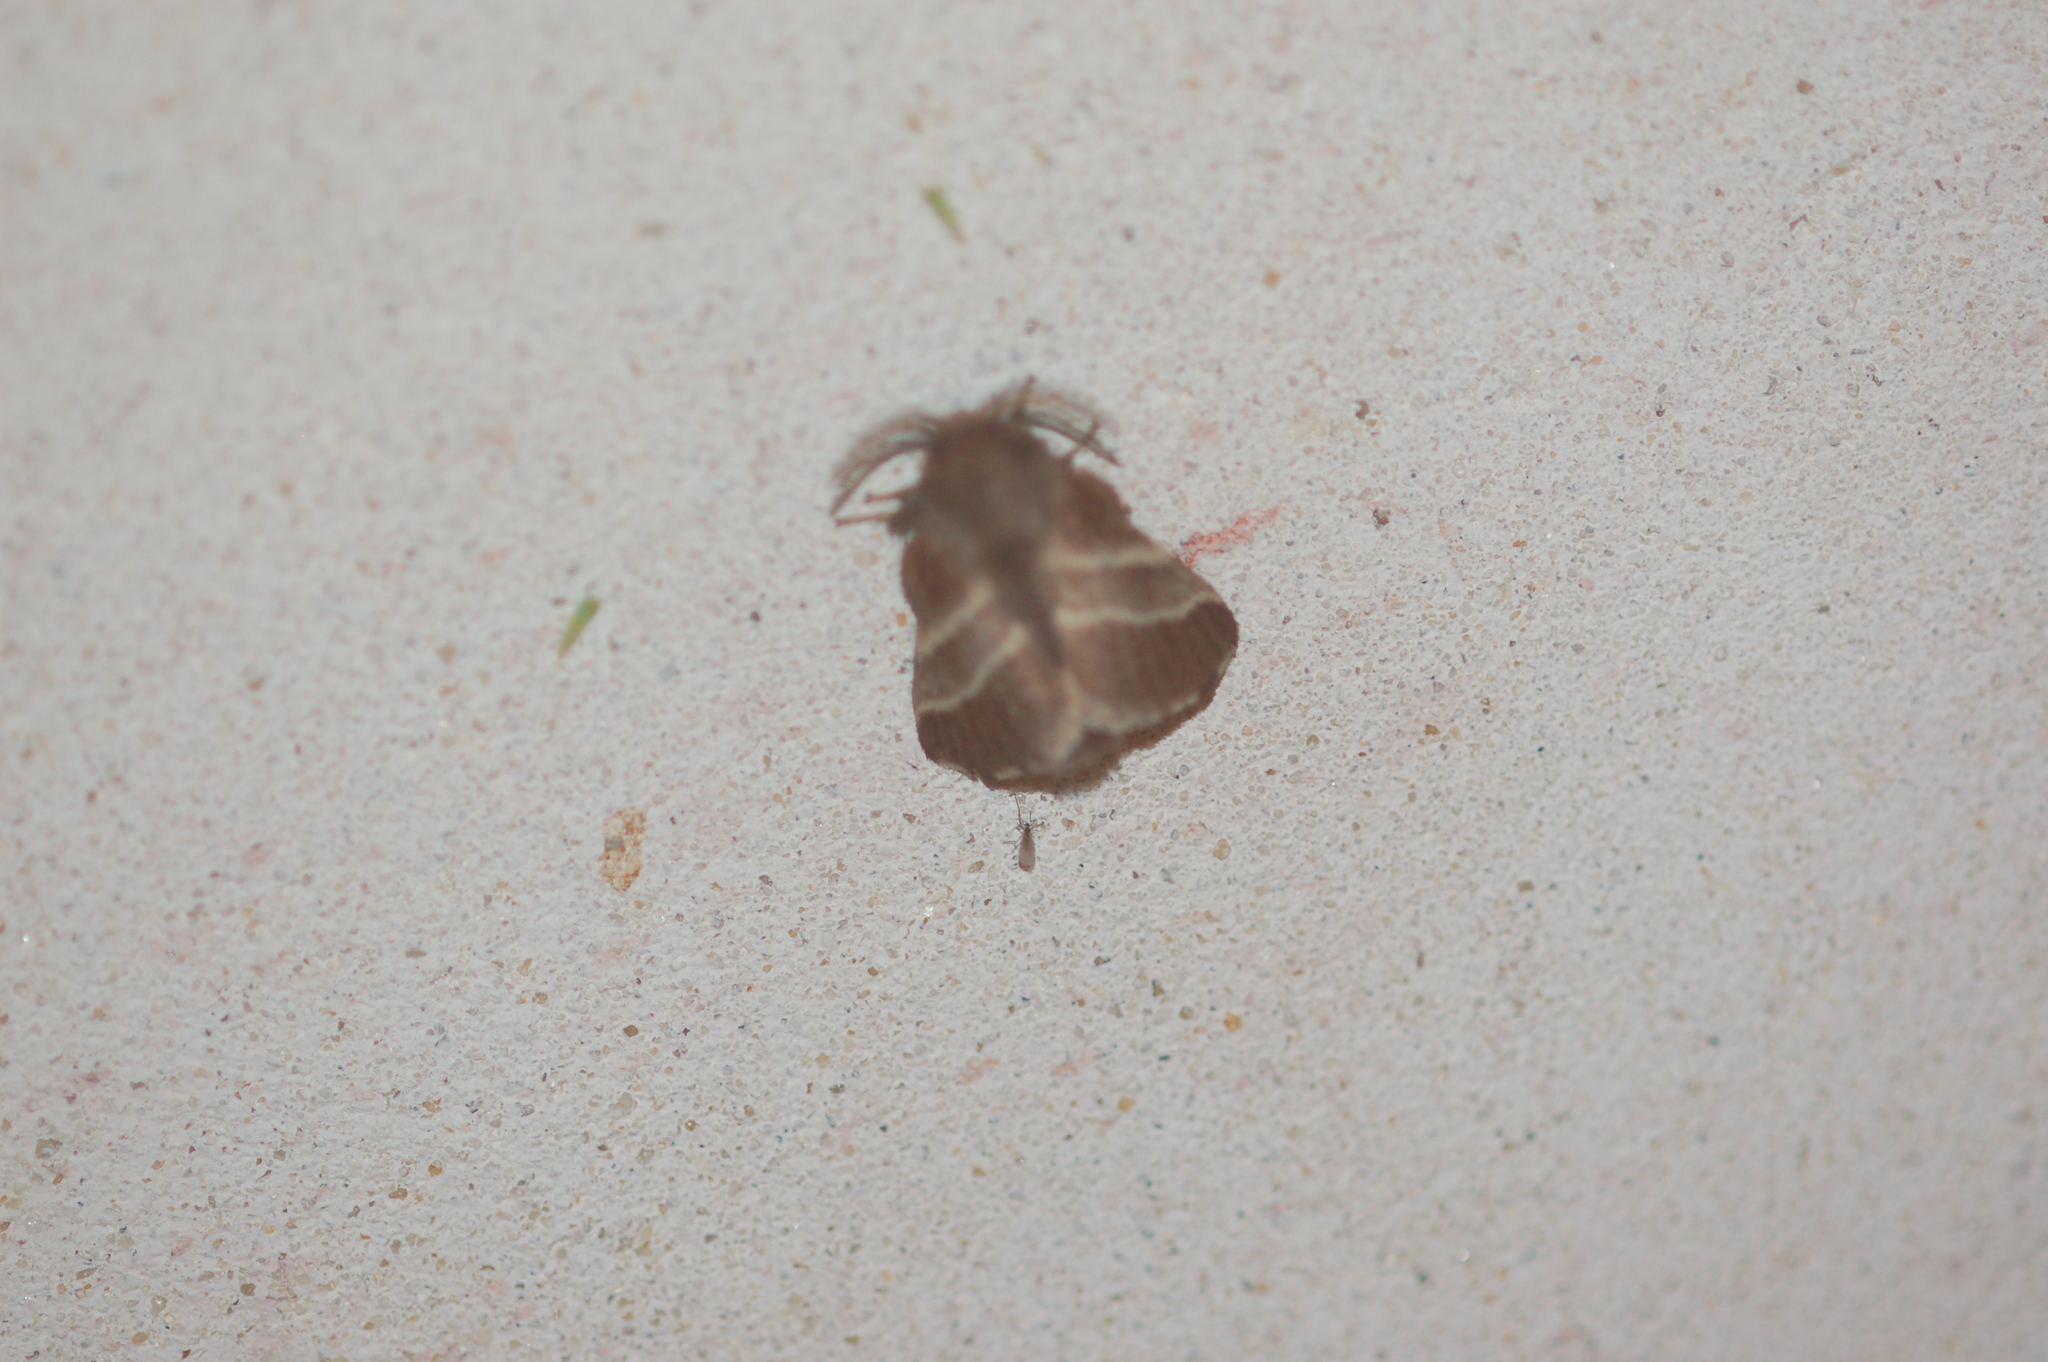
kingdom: Animalia
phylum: Arthropoda
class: Insecta
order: Lepidoptera
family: Lasiocampidae
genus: Malacosoma
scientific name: Malacosoma americana
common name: Eastern tent caterpillar moth
